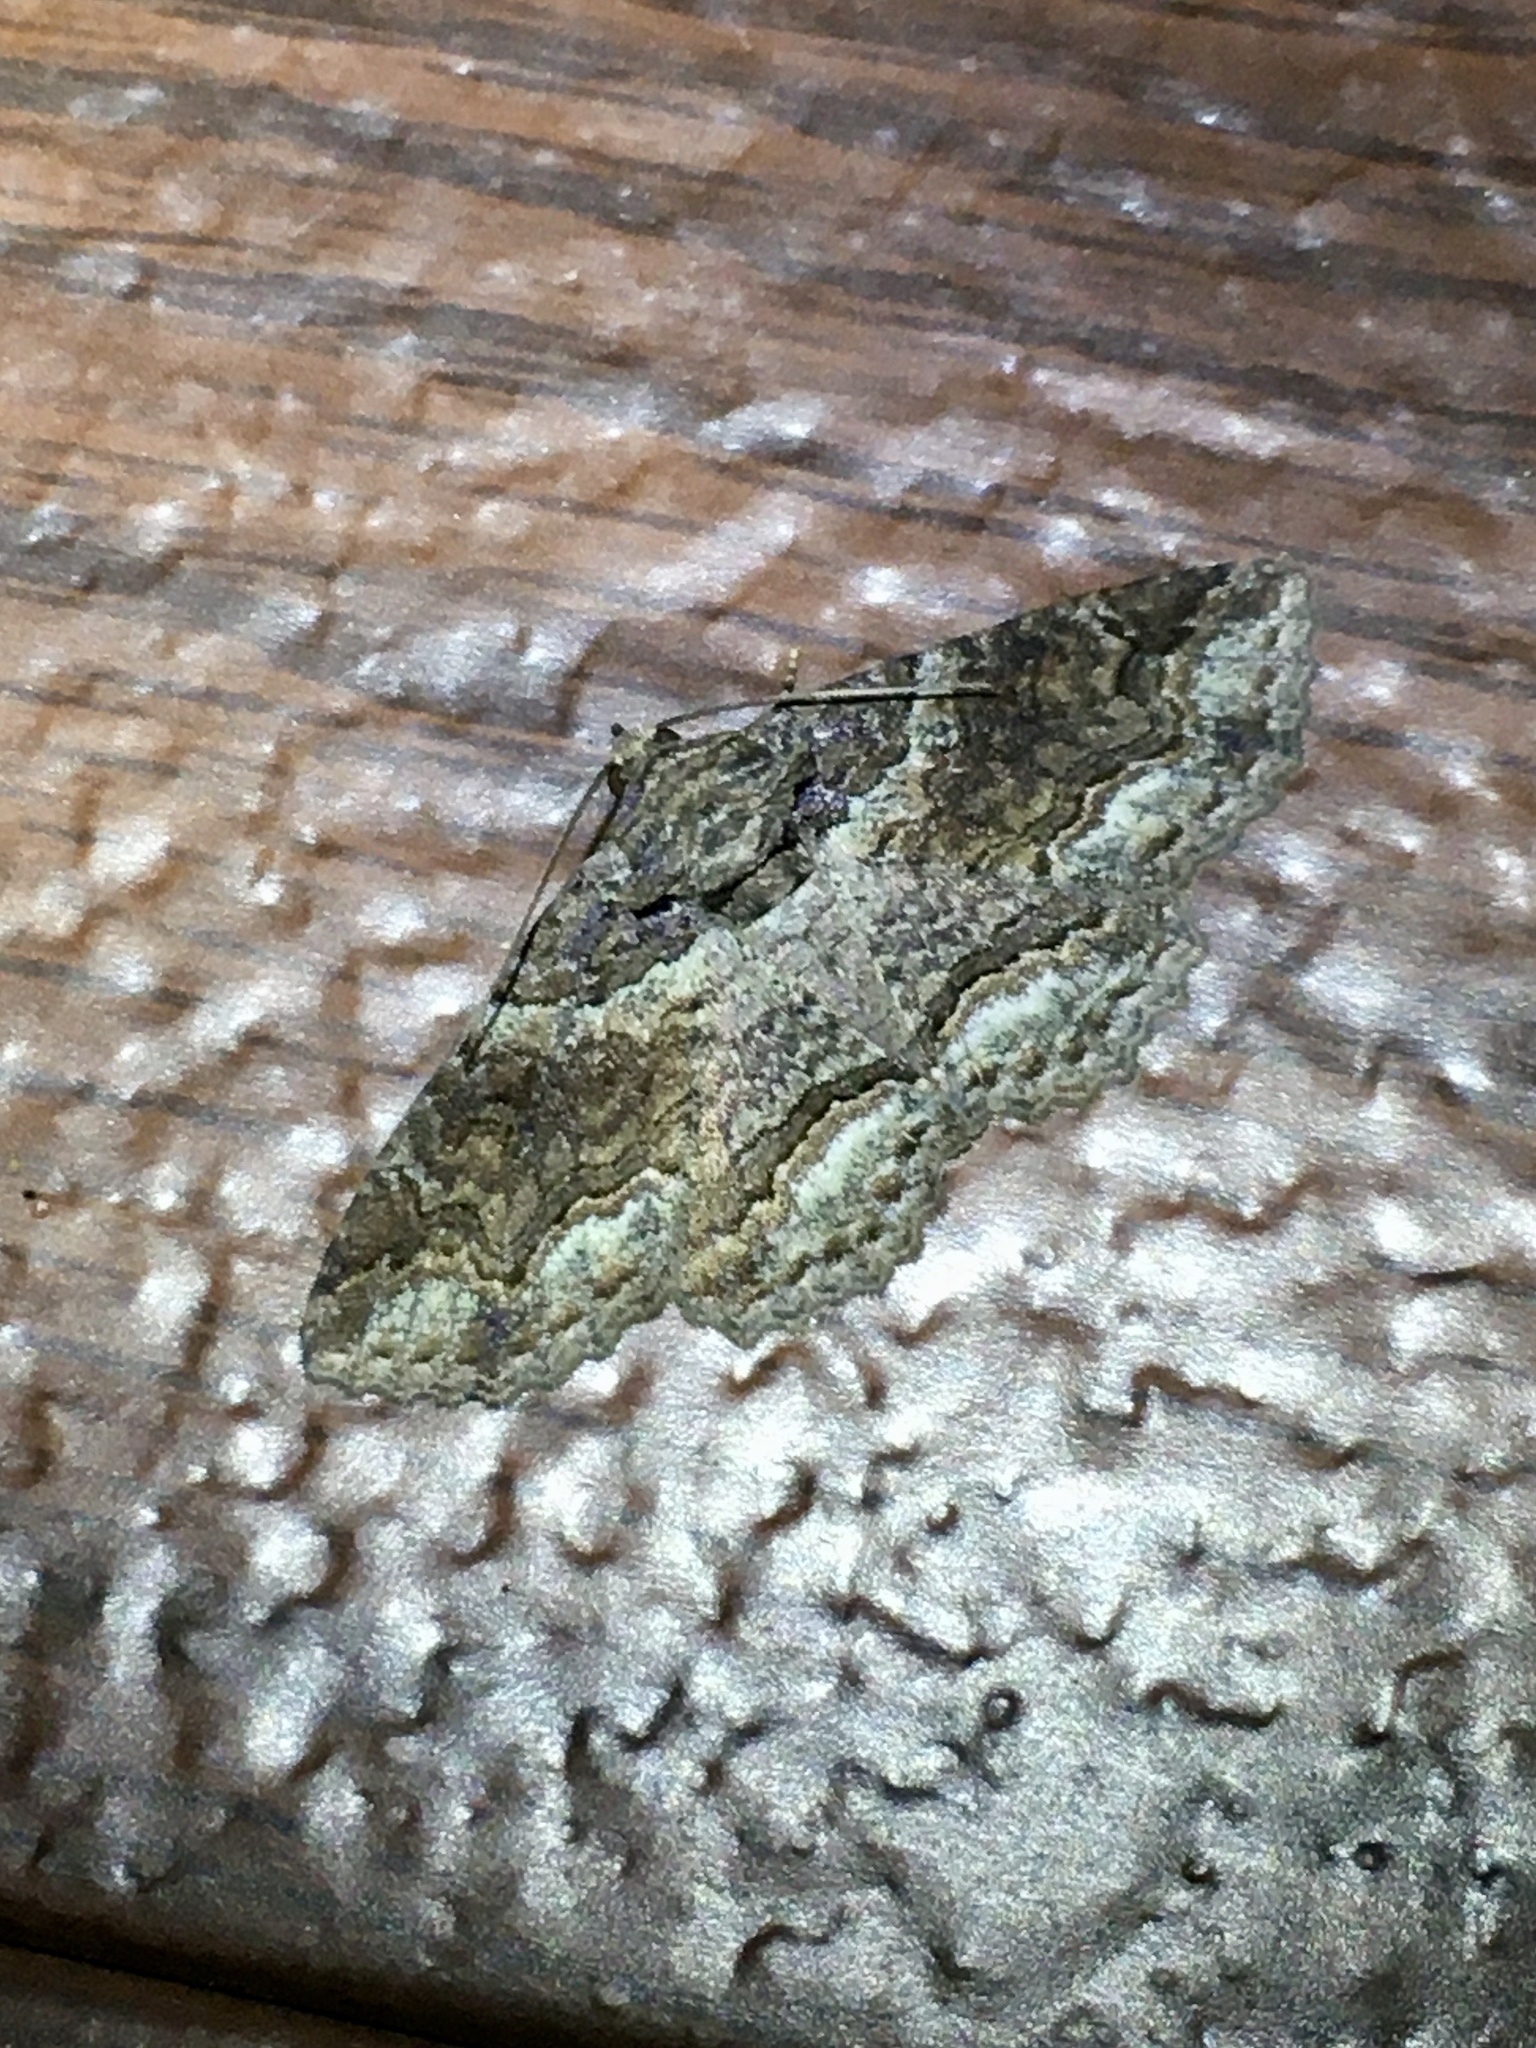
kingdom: Animalia
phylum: Arthropoda
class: Insecta
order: Lepidoptera
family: Erebidae
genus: Zale
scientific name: Zale galbanata
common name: Maple zale
